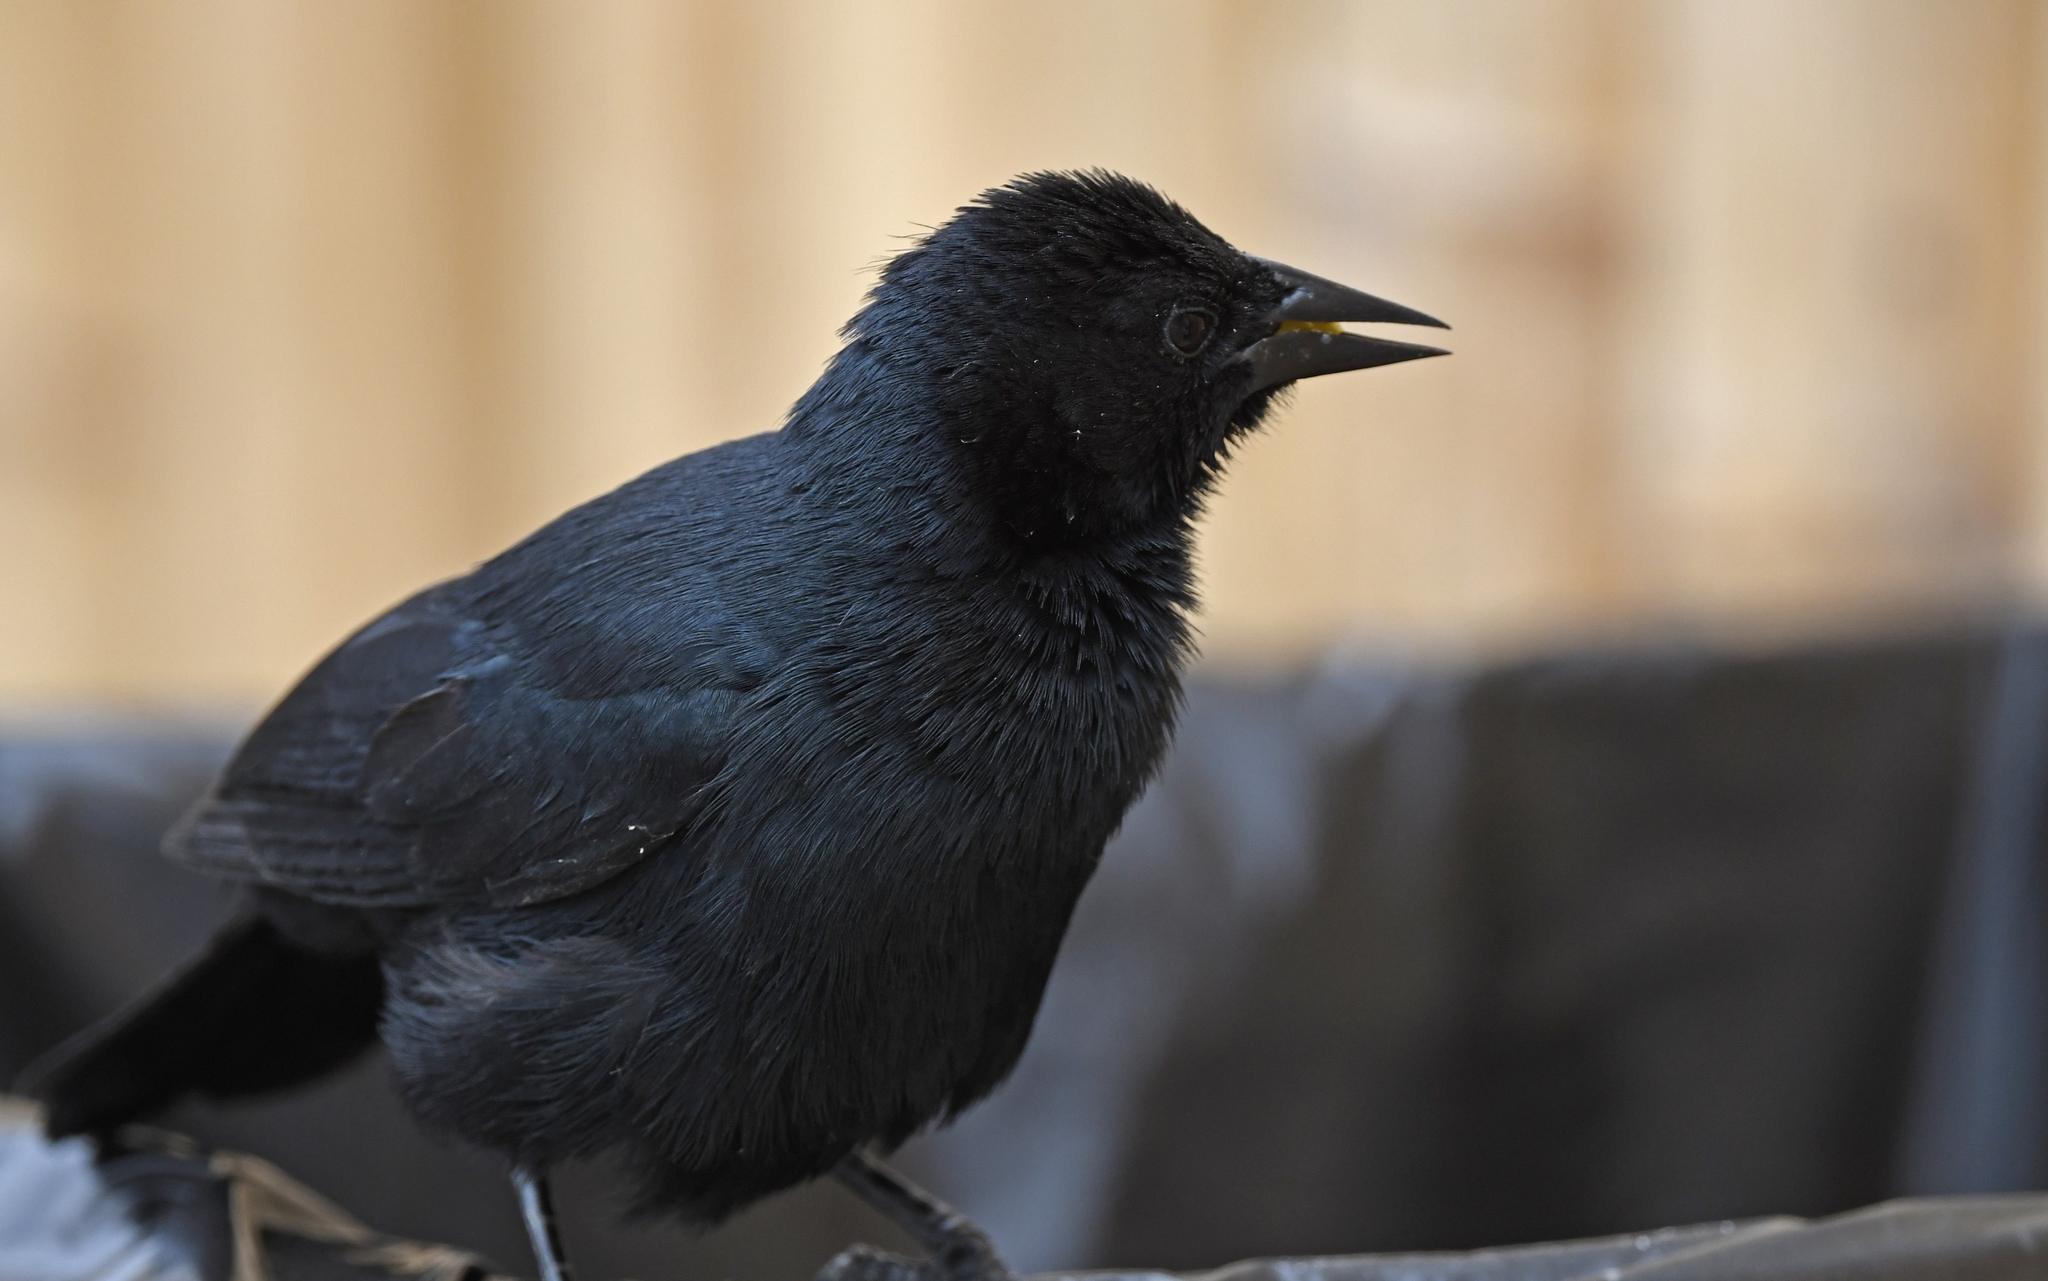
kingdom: Animalia
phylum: Chordata
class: Aves
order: Passeriformes
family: Icteridae
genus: Dives
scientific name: Dives warczewiczi
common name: Scrub blackbird
